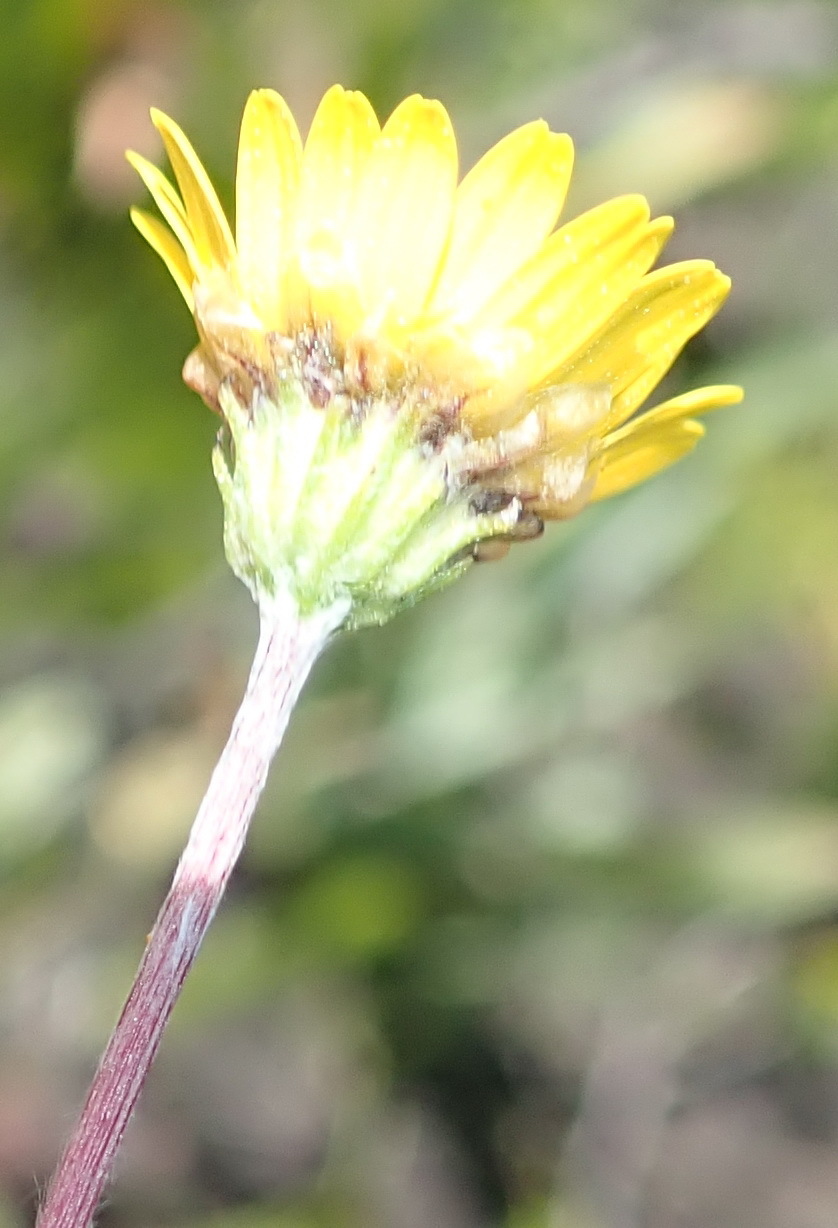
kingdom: Plantae
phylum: Tracheophyta
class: Magnoliopsida
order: Asterales
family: Asteraceae
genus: Ursinia
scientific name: Ursinia trifida
